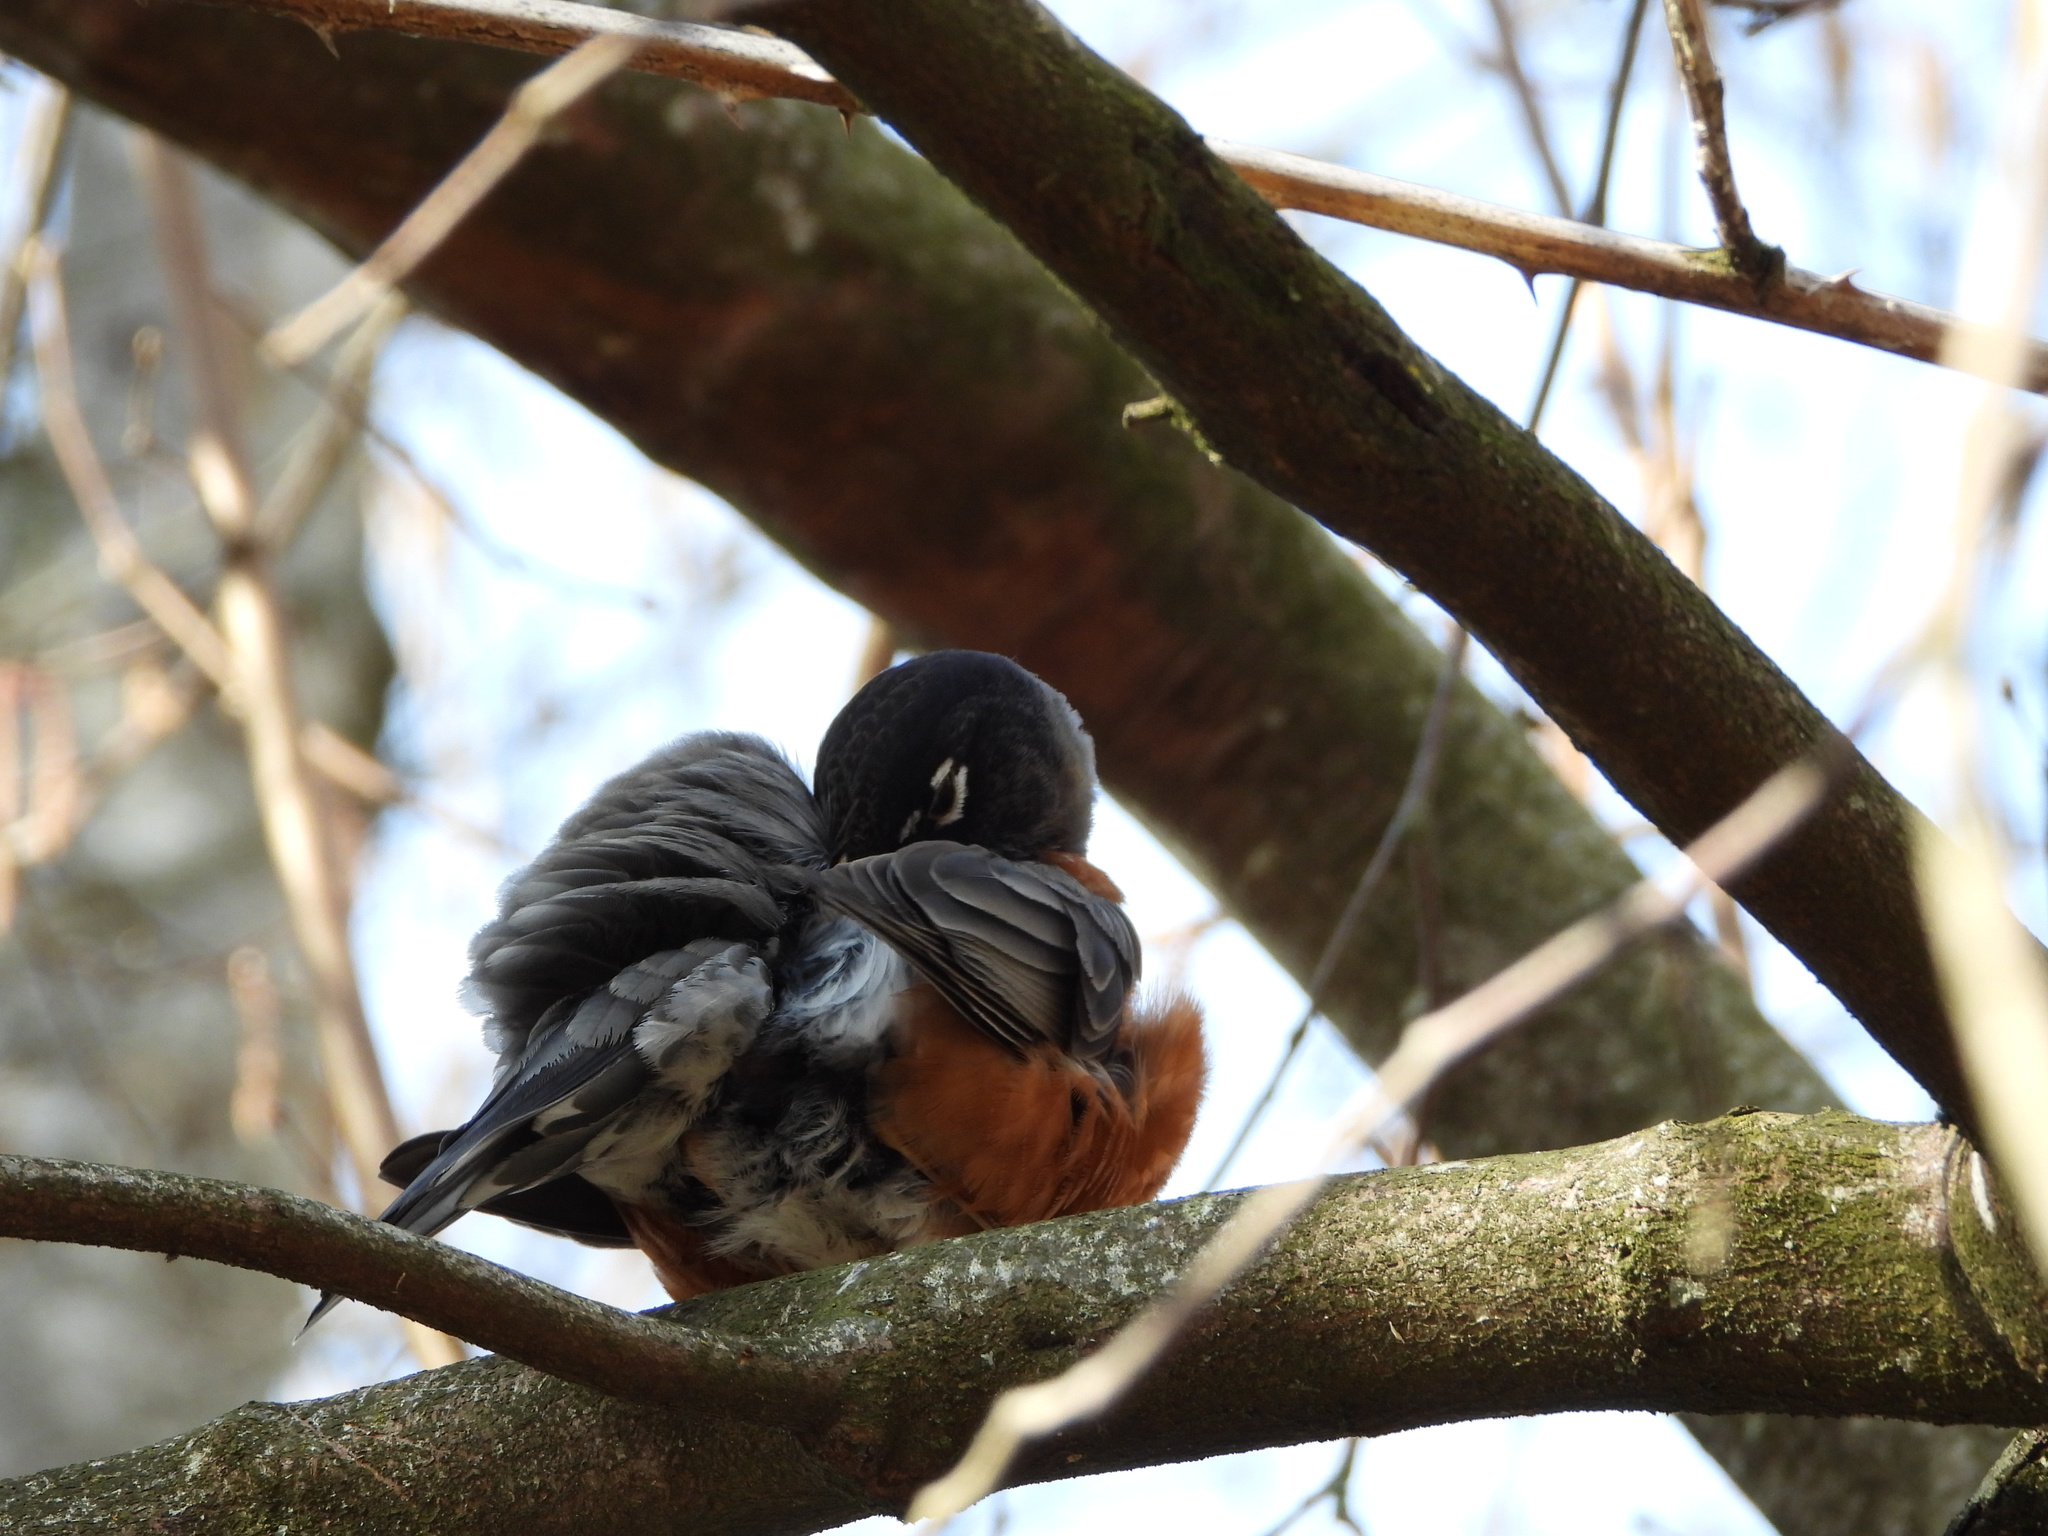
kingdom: Animalia
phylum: Chordata
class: Aves
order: Passeriformes
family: Turdidae
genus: Turdus
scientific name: Turdus migratorius
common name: American robin
